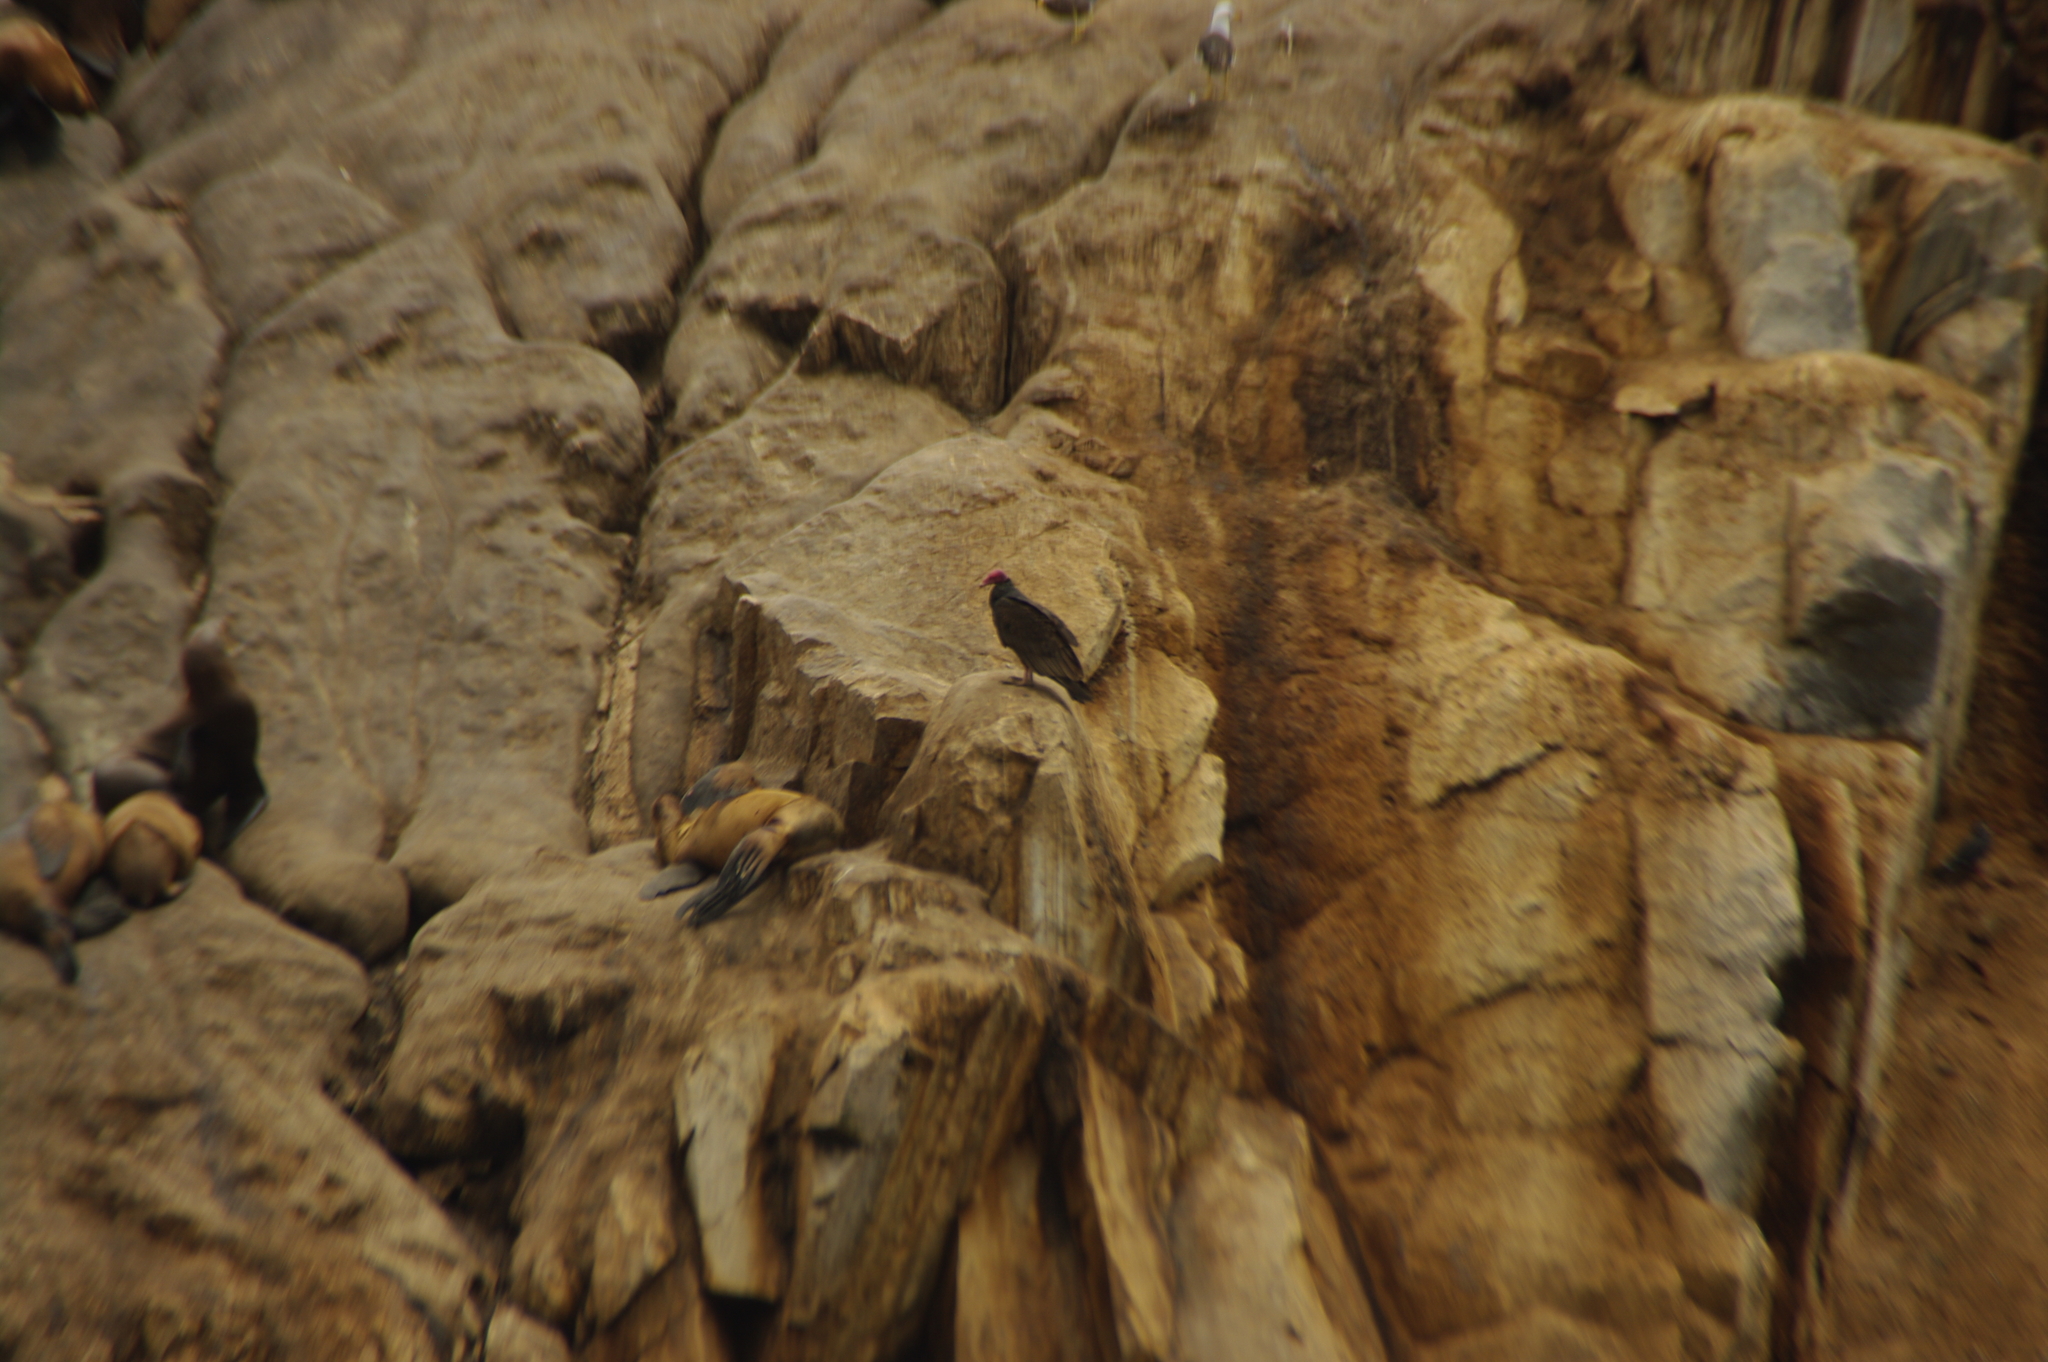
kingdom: Animalia
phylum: Chordata
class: Aves
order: Accipitriformes
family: Cathartidae
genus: Cathartes
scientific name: Cathartes aura
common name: Turkey vulture
